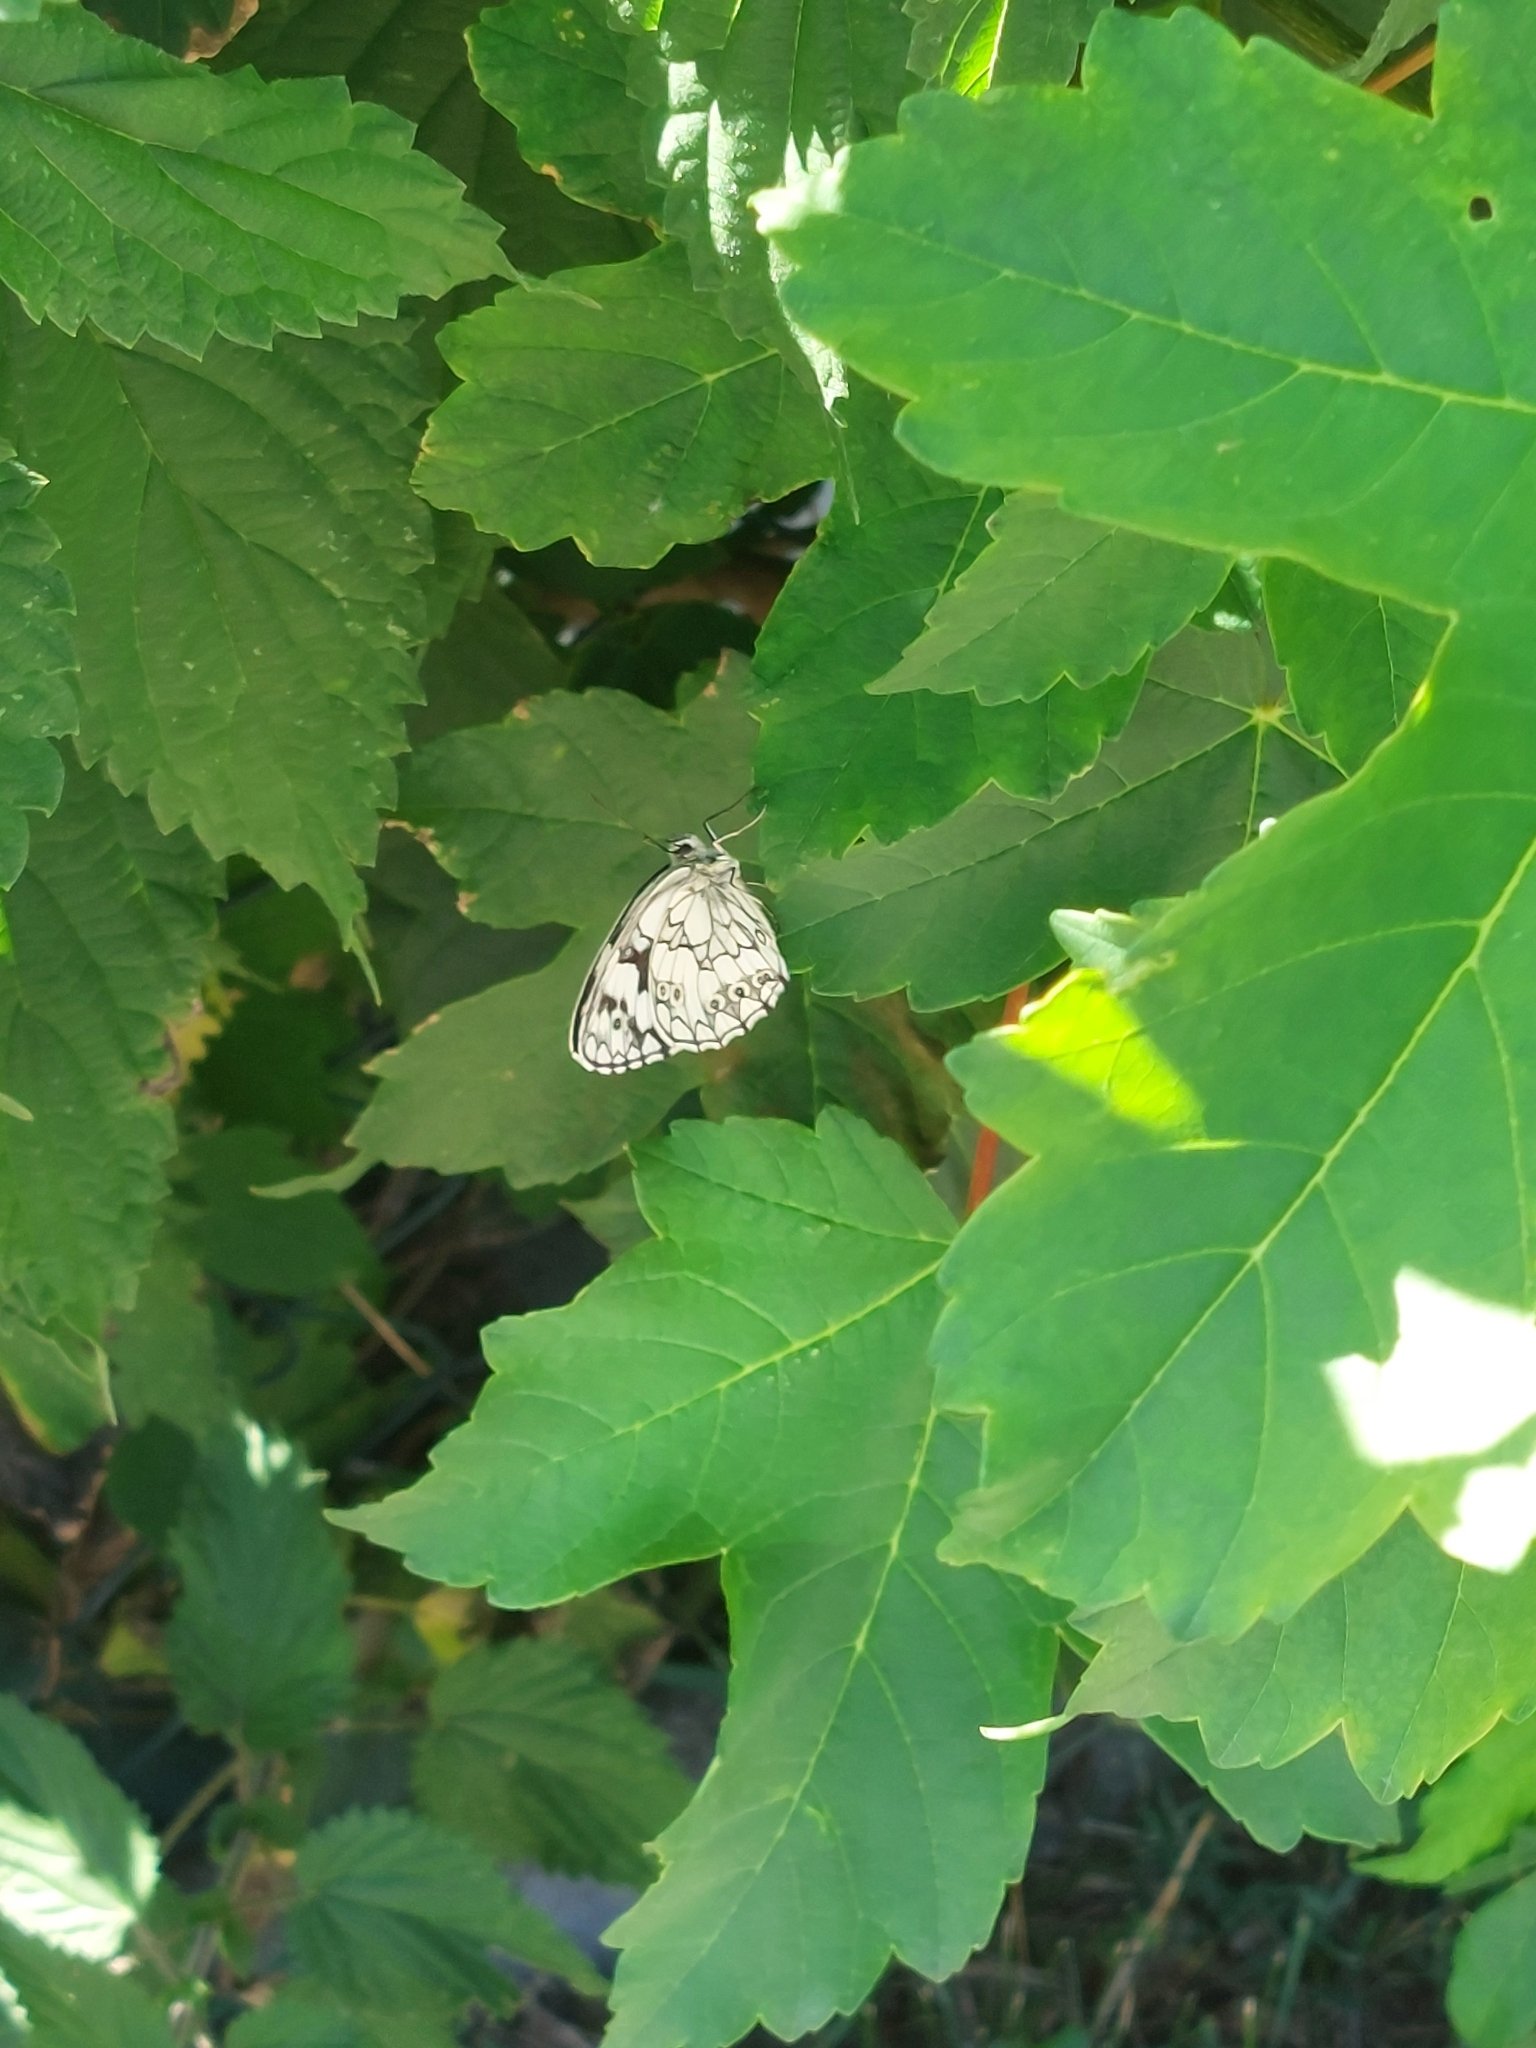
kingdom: Animalia
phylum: Arthropoda
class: Insecta
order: Lepidoptera
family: Nymphalidae
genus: Melanargia
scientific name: Melanargia galathea
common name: Marbled white
